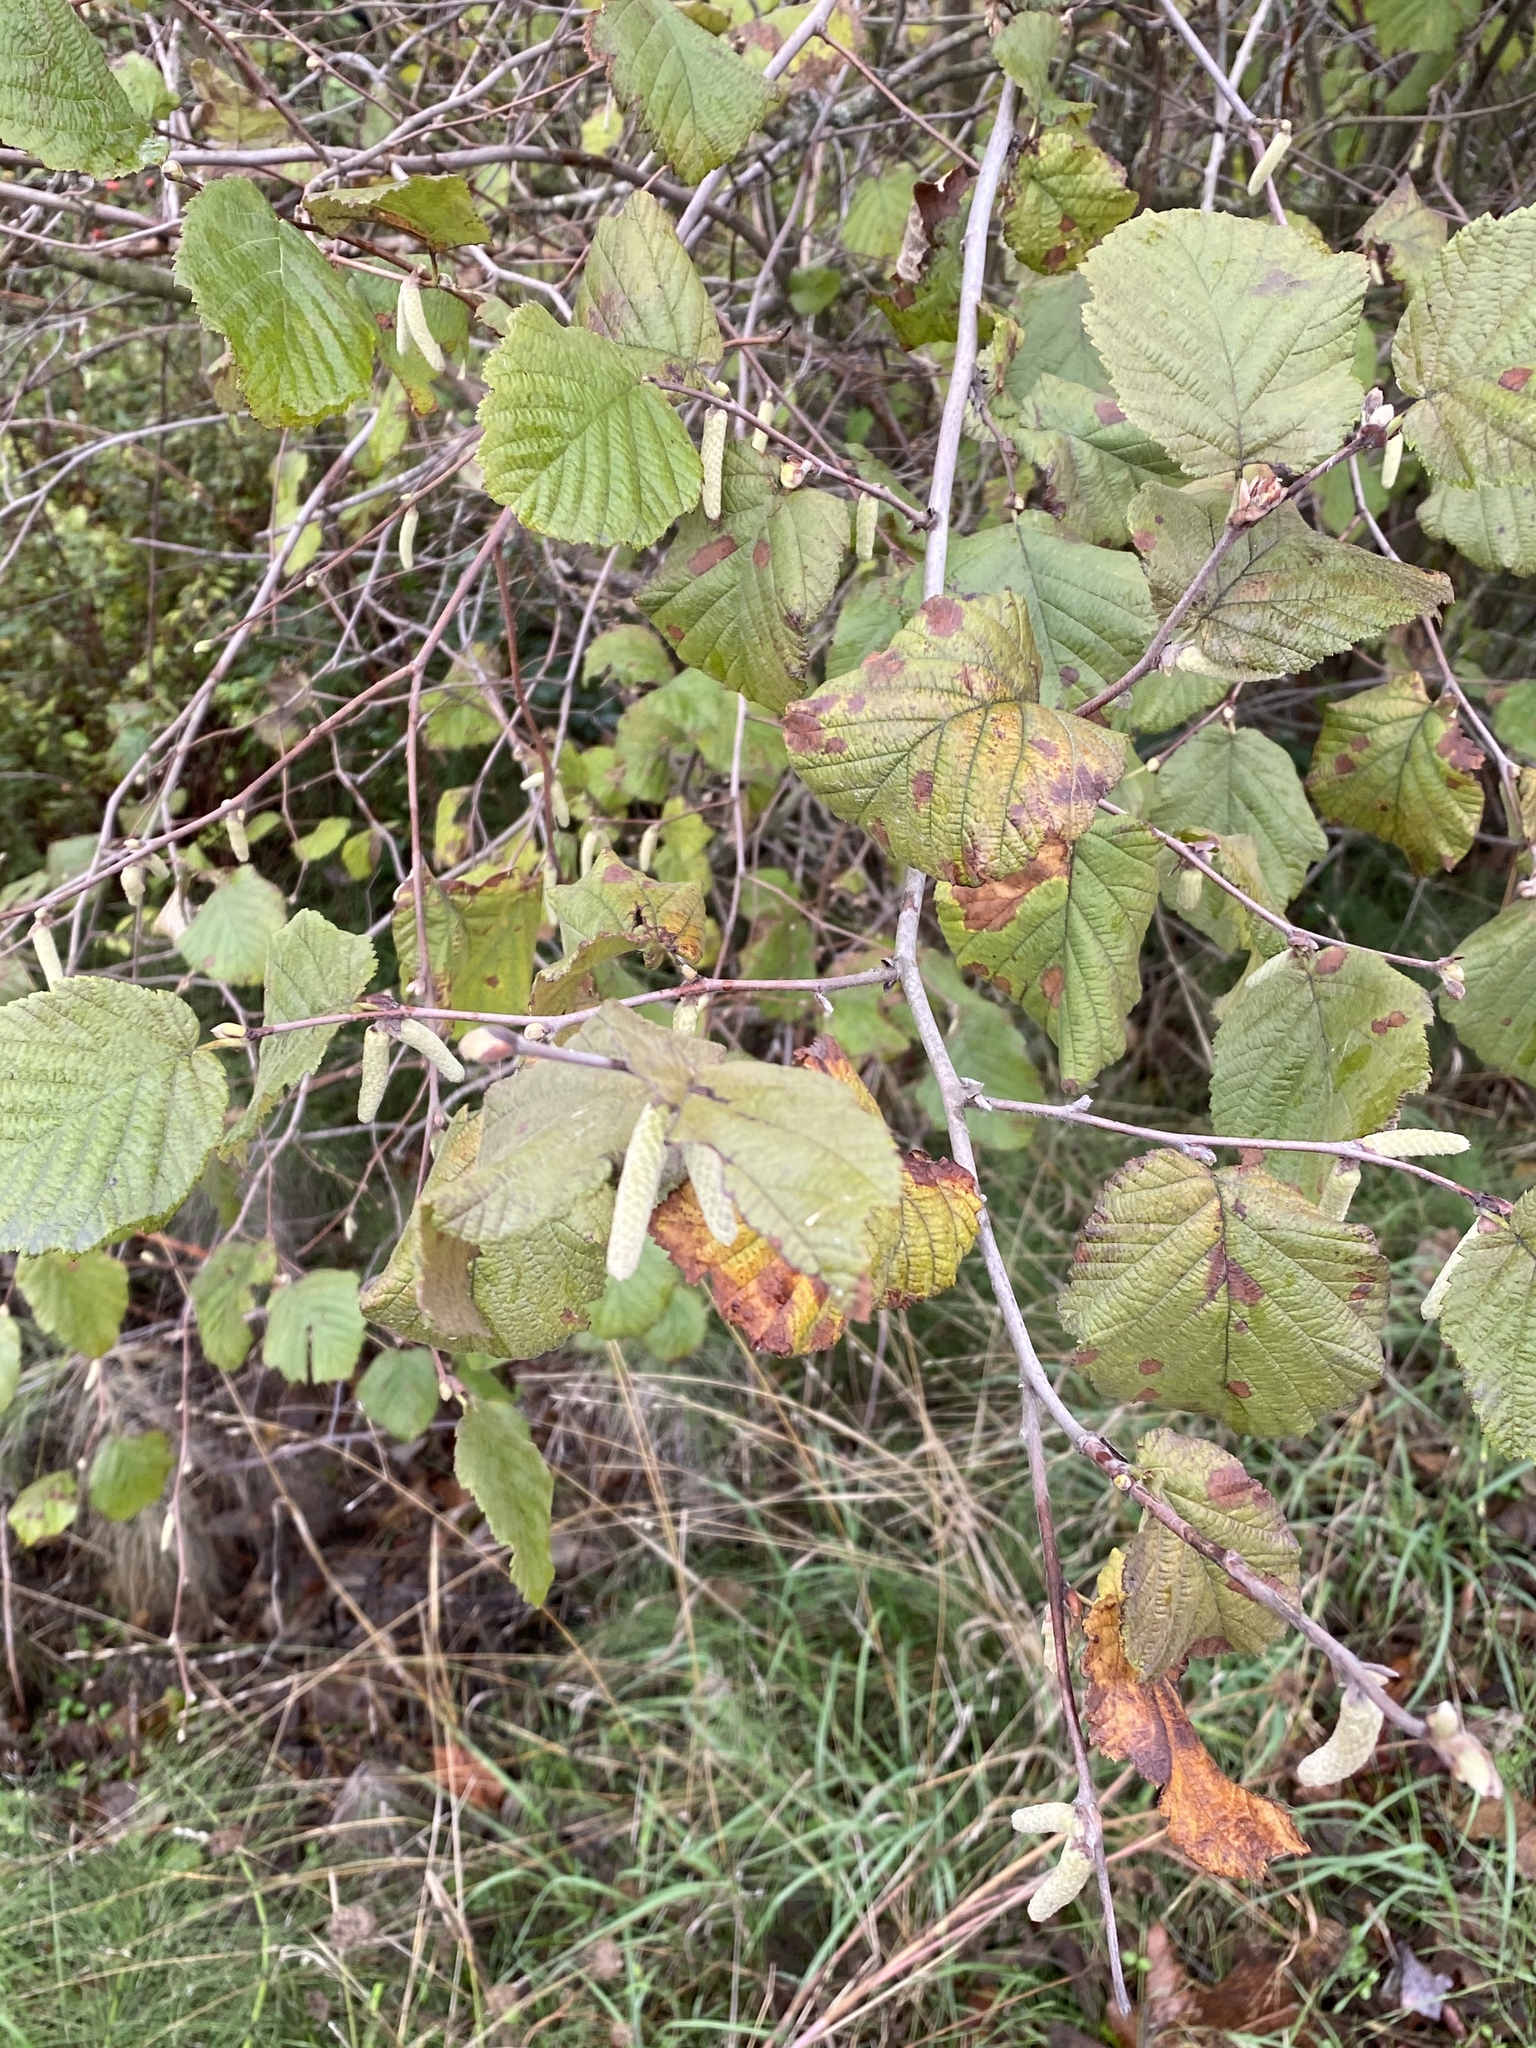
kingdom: Plantae
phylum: Tracheophyta
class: Magnoliopsida
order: Fagales
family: Betulaceae
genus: Corylus
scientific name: Corylus cornuta
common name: Beaked hazel
